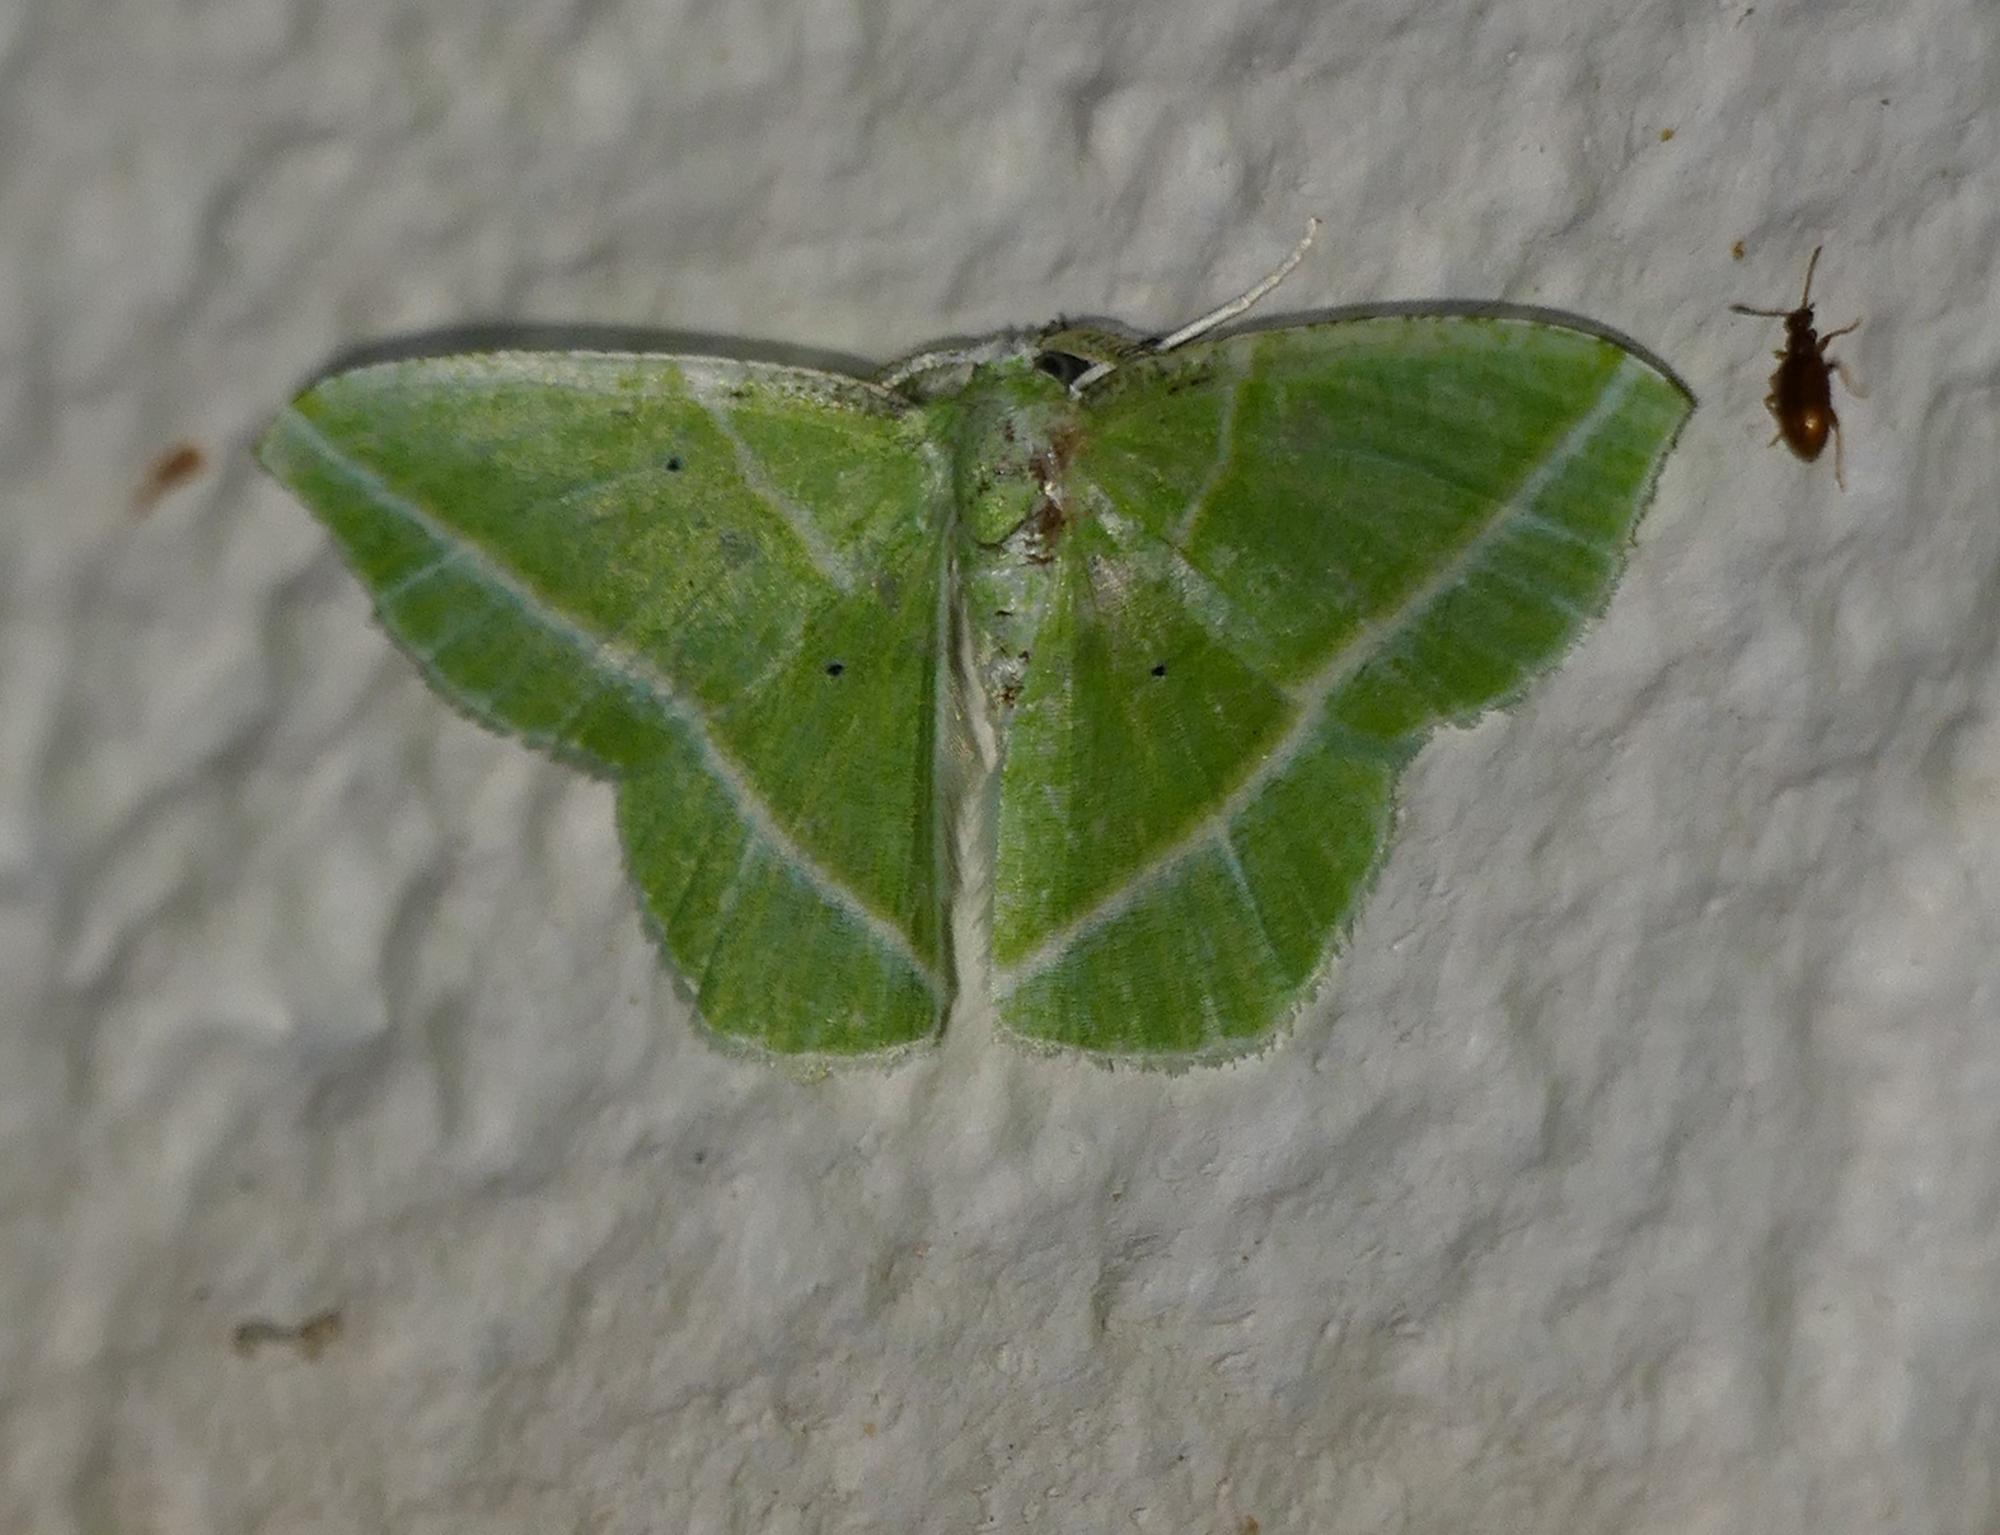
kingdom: Animalia
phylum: Arthropoda
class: Insecta
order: Lepidoptera
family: Geometridae
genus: Dichorda
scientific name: Dichorda iridaria
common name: Showy emerald
